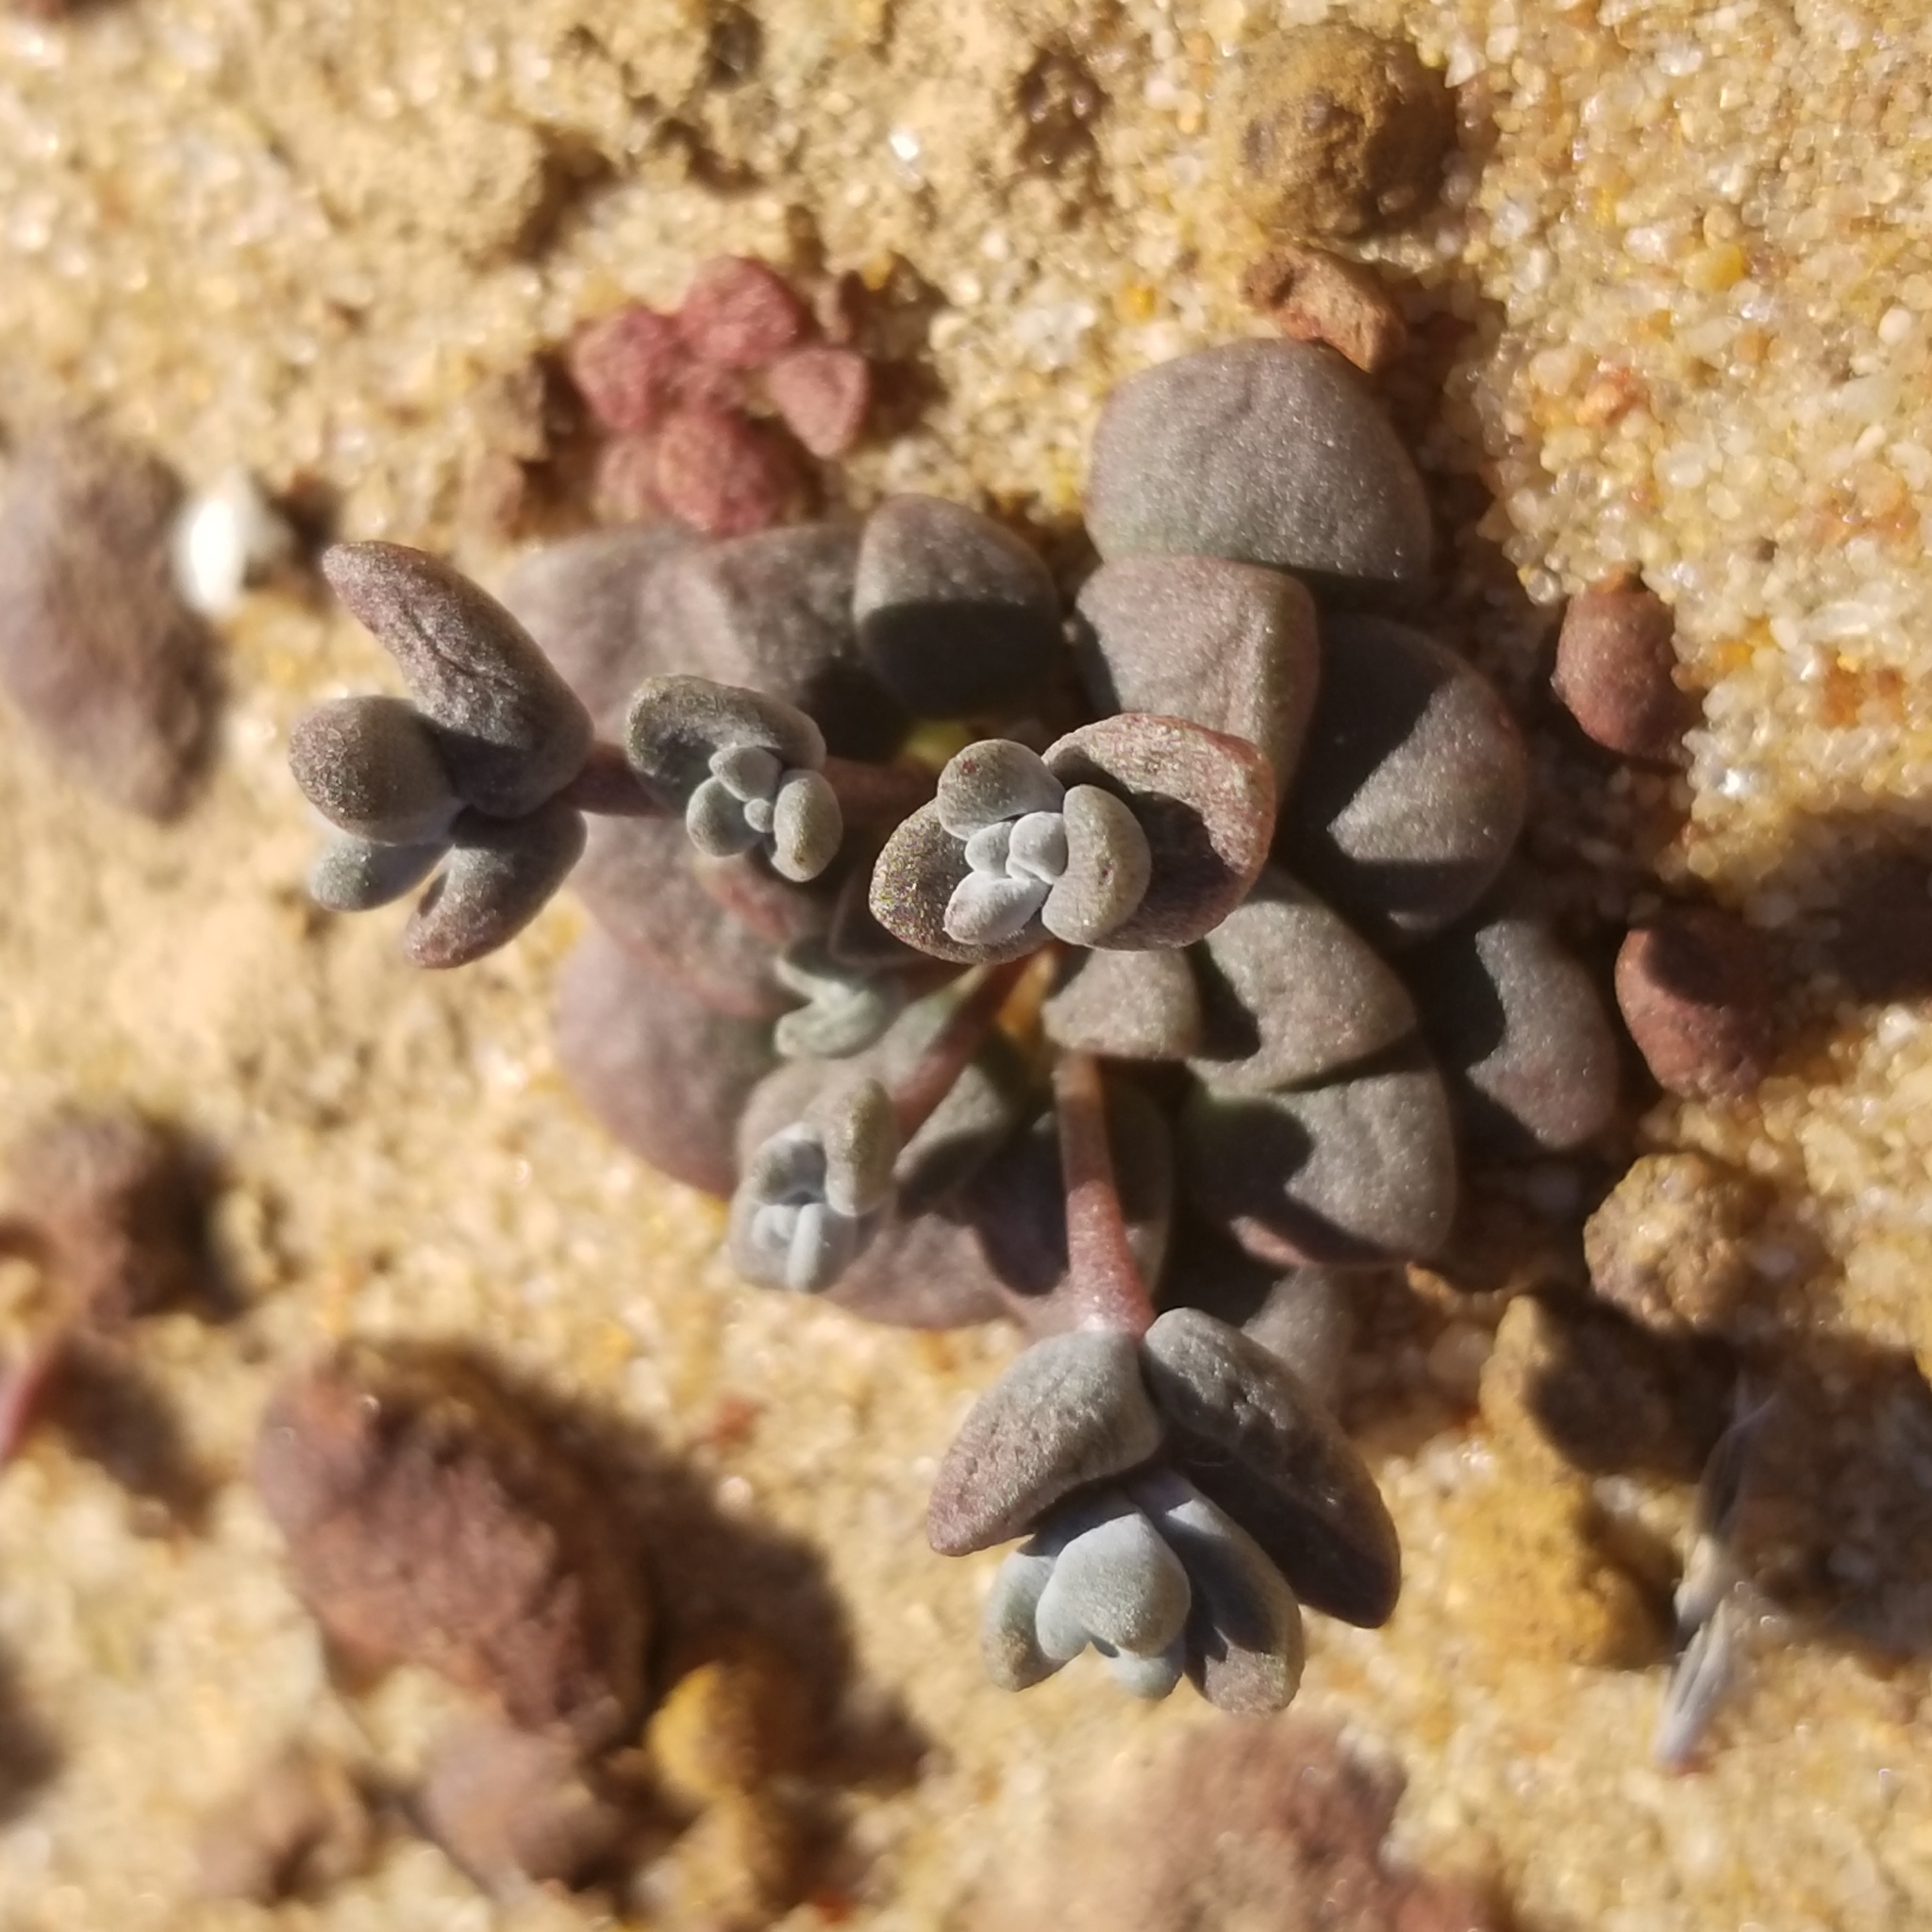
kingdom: Plantae
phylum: Tracheophyta
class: Magnoliopsida
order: Saxifragales
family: Crassulaceae
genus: Dudleya
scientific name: Dudleya blochmaniae
